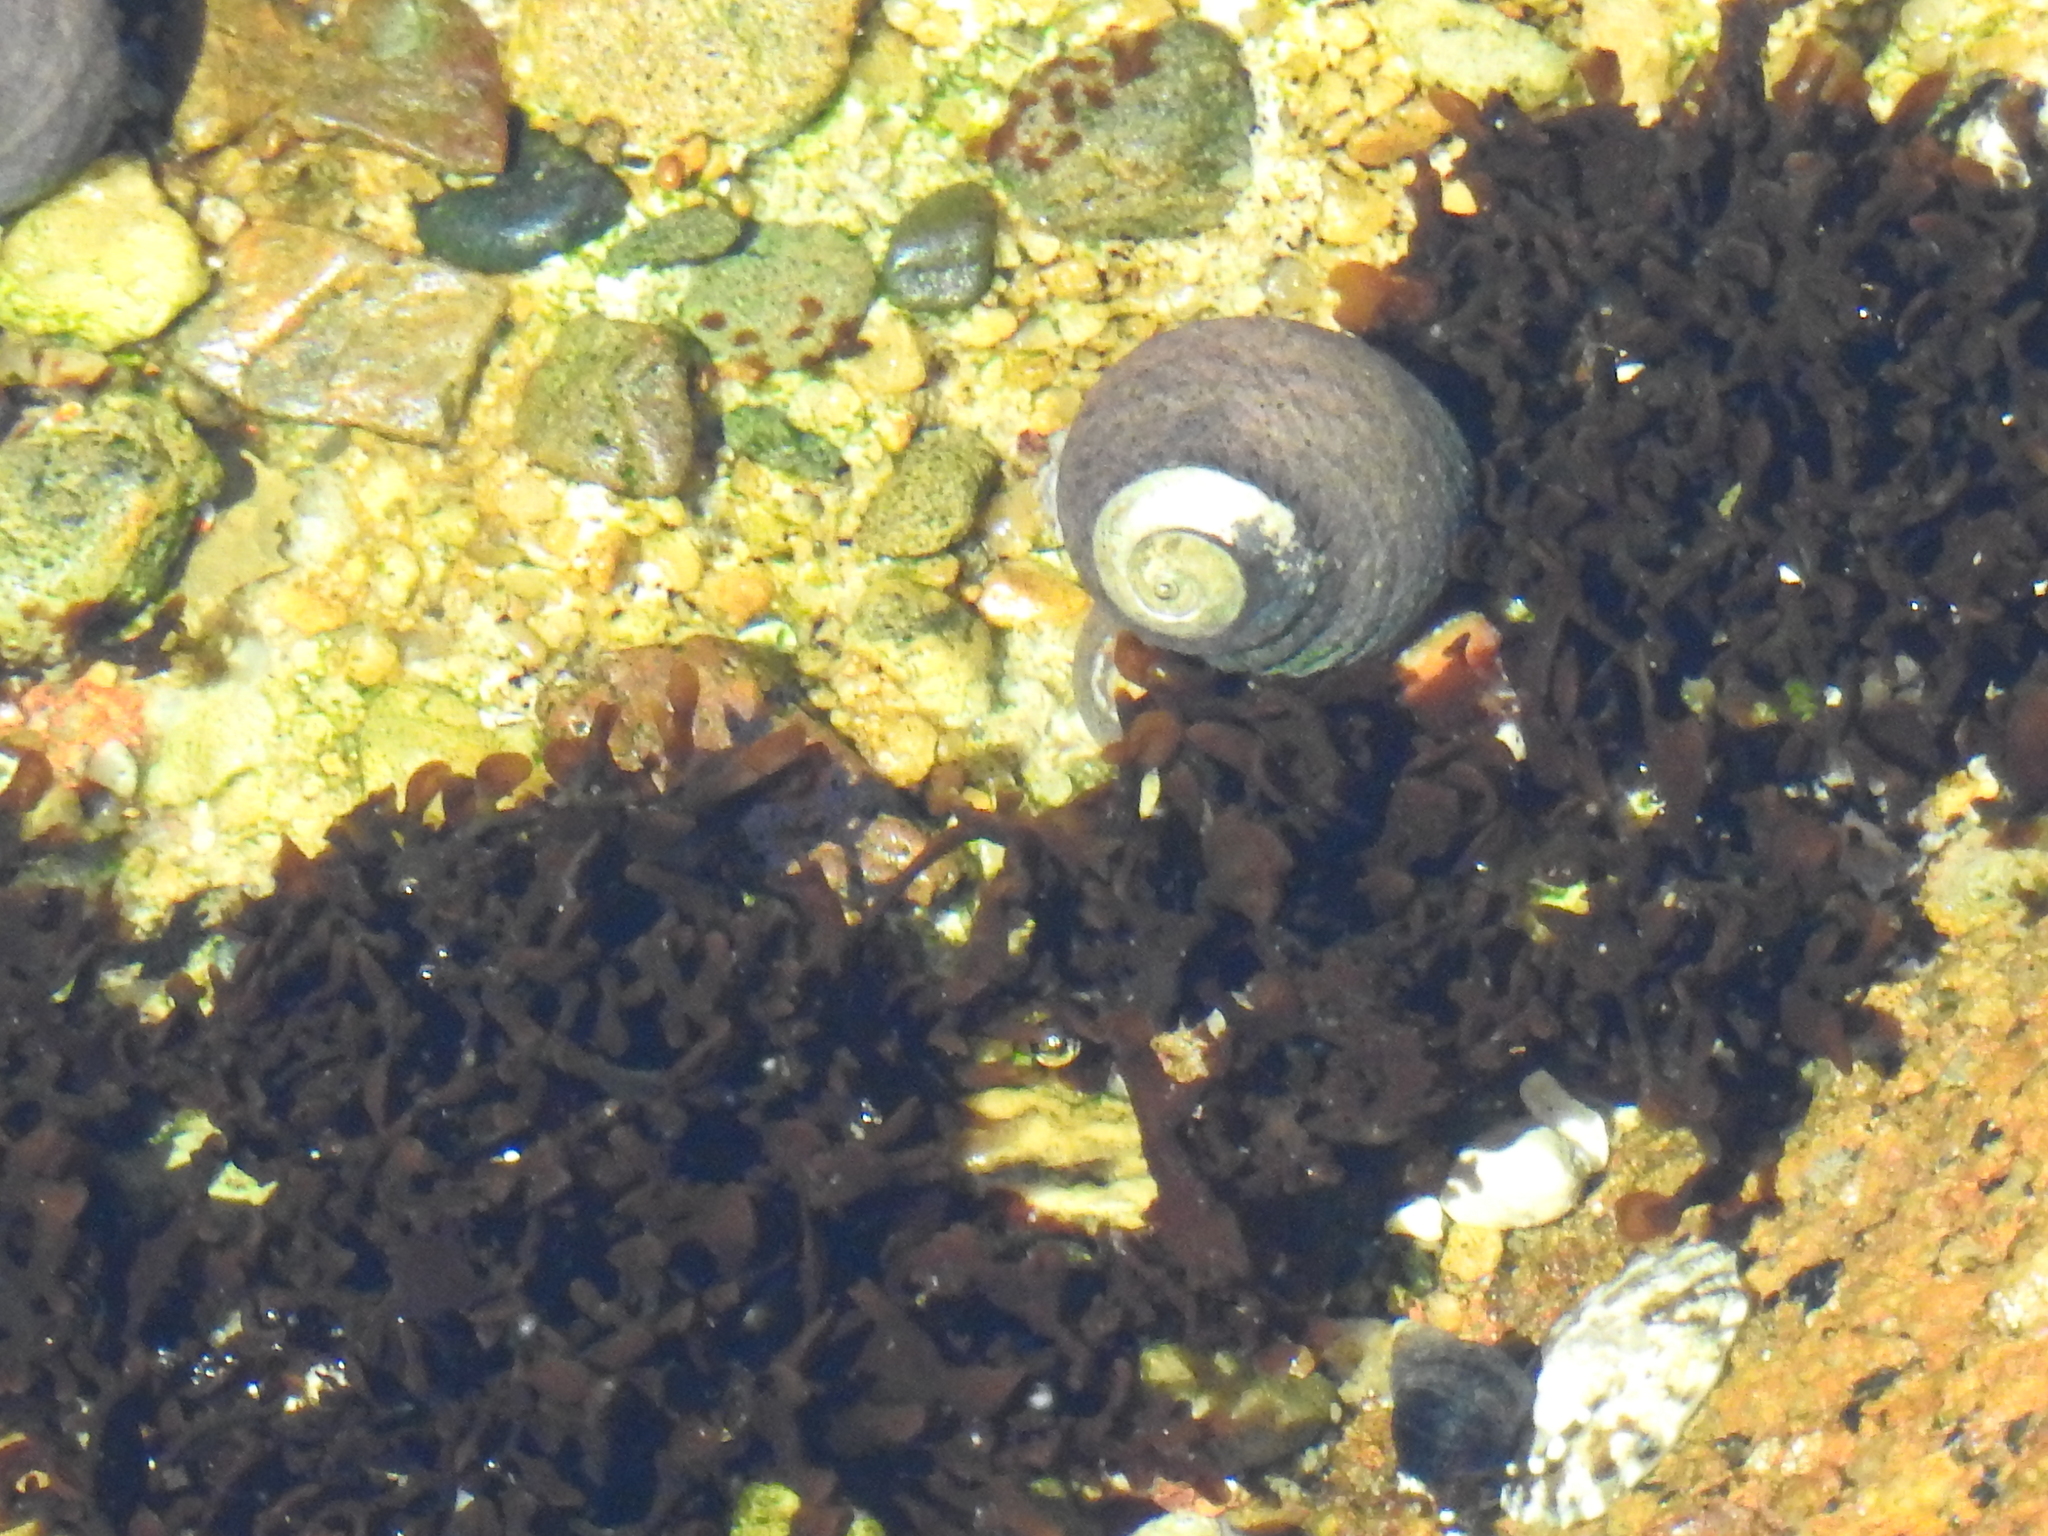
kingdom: Animalia
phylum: Mollusca
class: Gastropoda
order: Trochida
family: Tegulidae
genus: Tegula
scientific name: Tegula funebralis
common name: Black tegula
